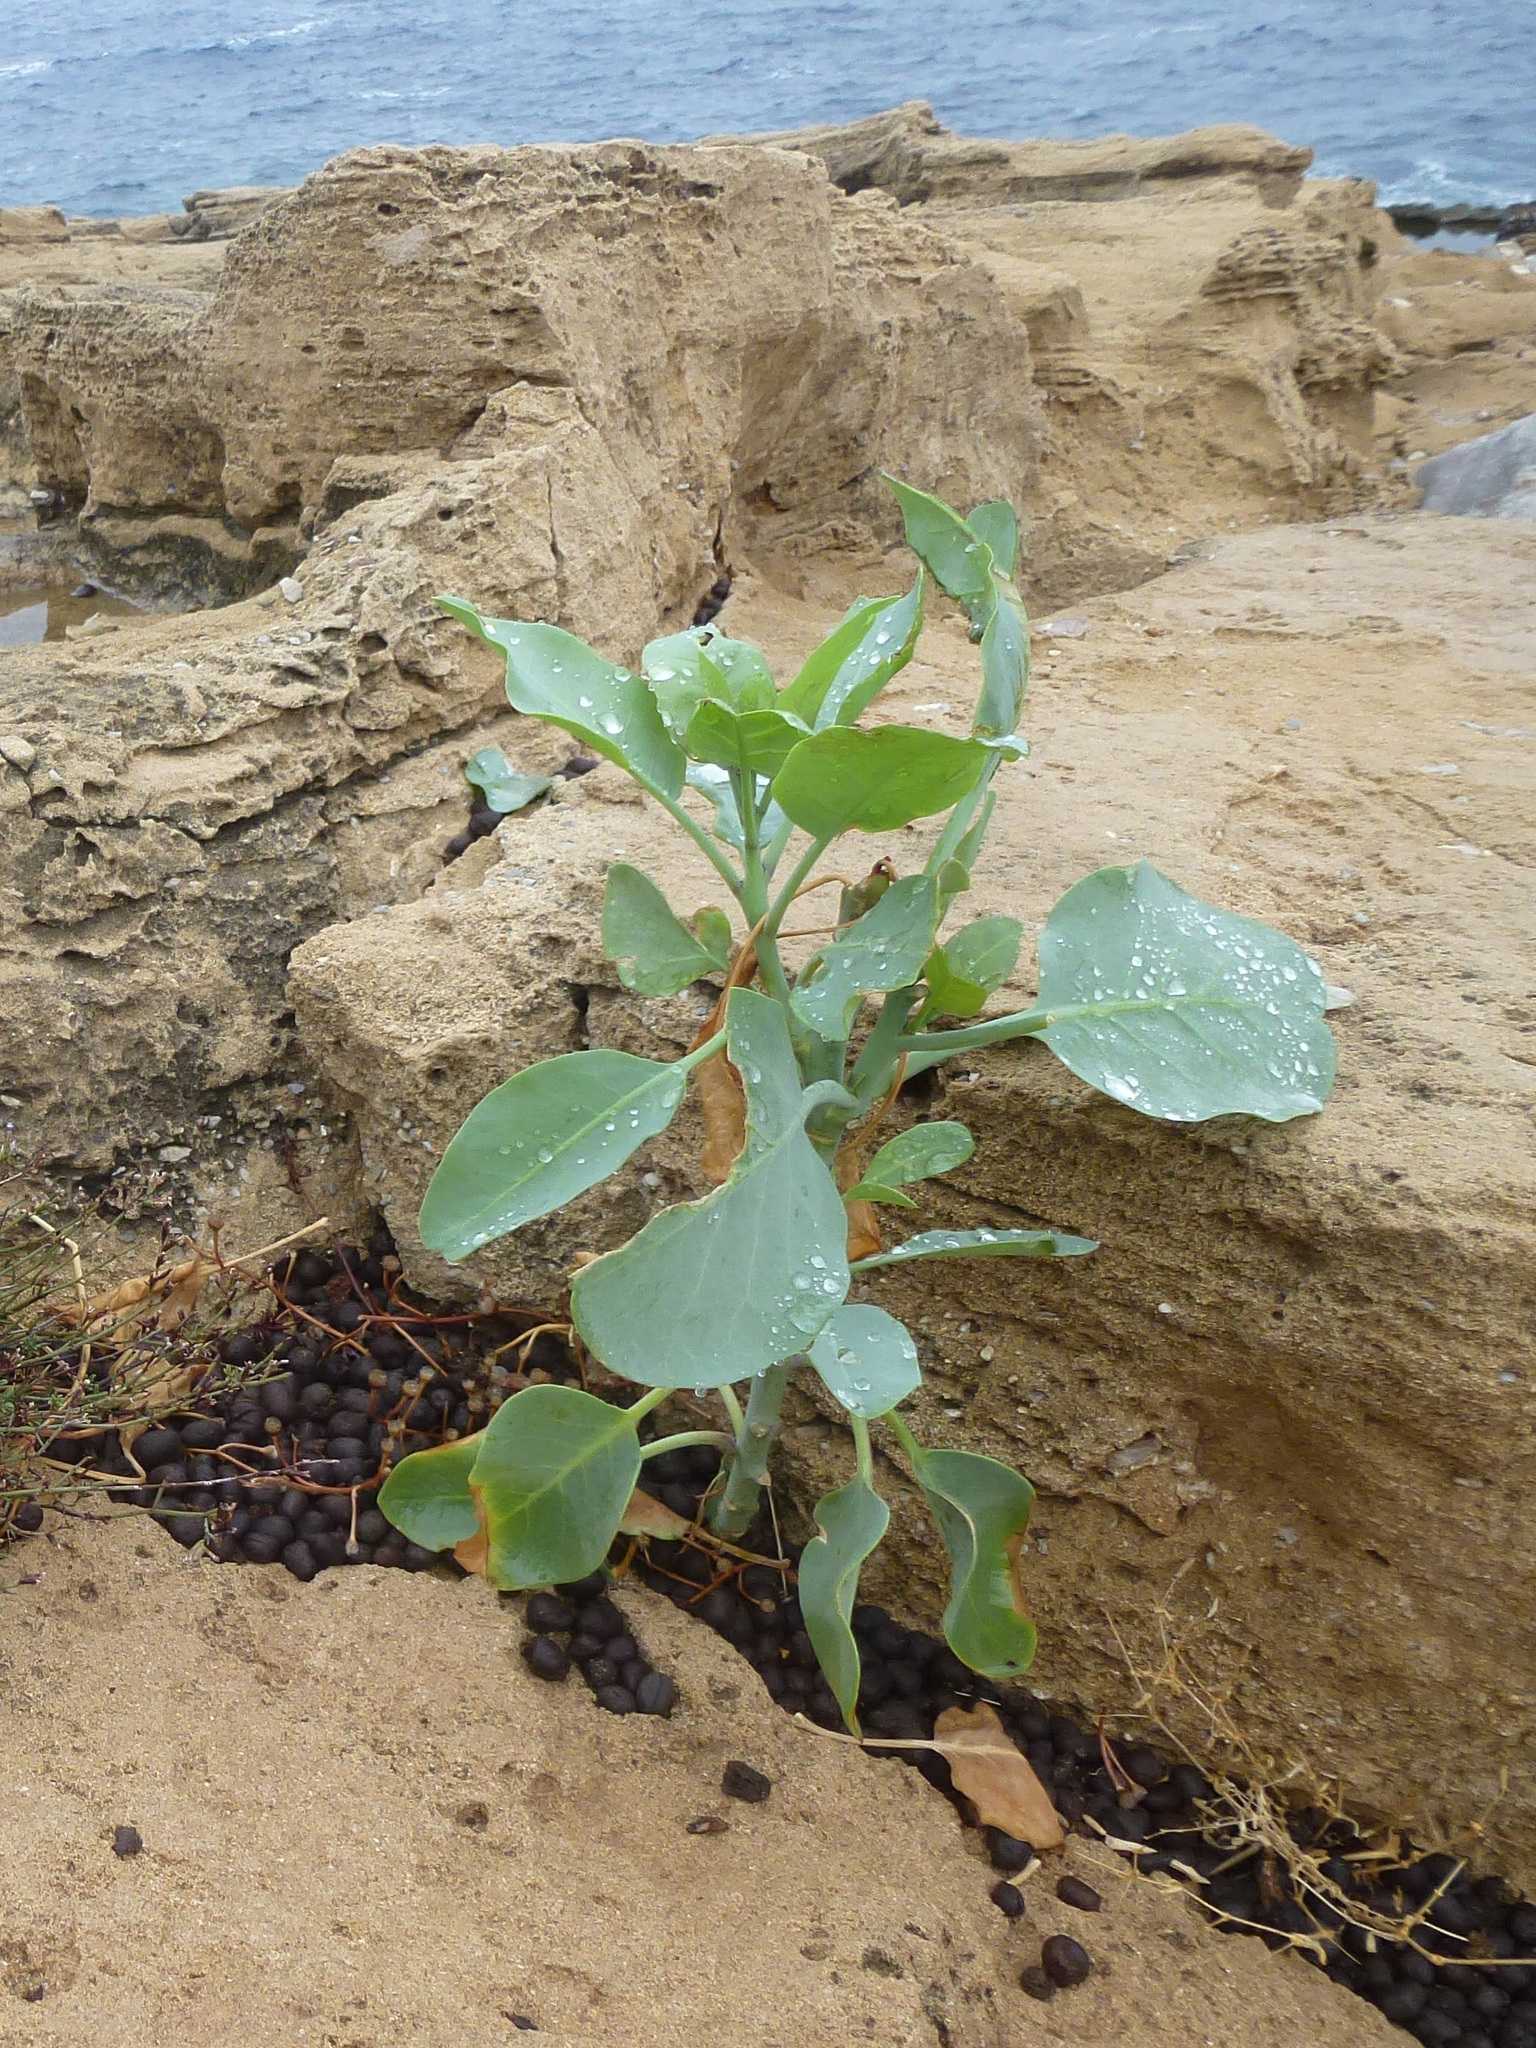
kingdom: Plantae
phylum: Tracheophyta
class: Magnoliopsida
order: Solanales
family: Solanaceae
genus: Nicotiana
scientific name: Nicotiana glauca
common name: Tree tobacco
